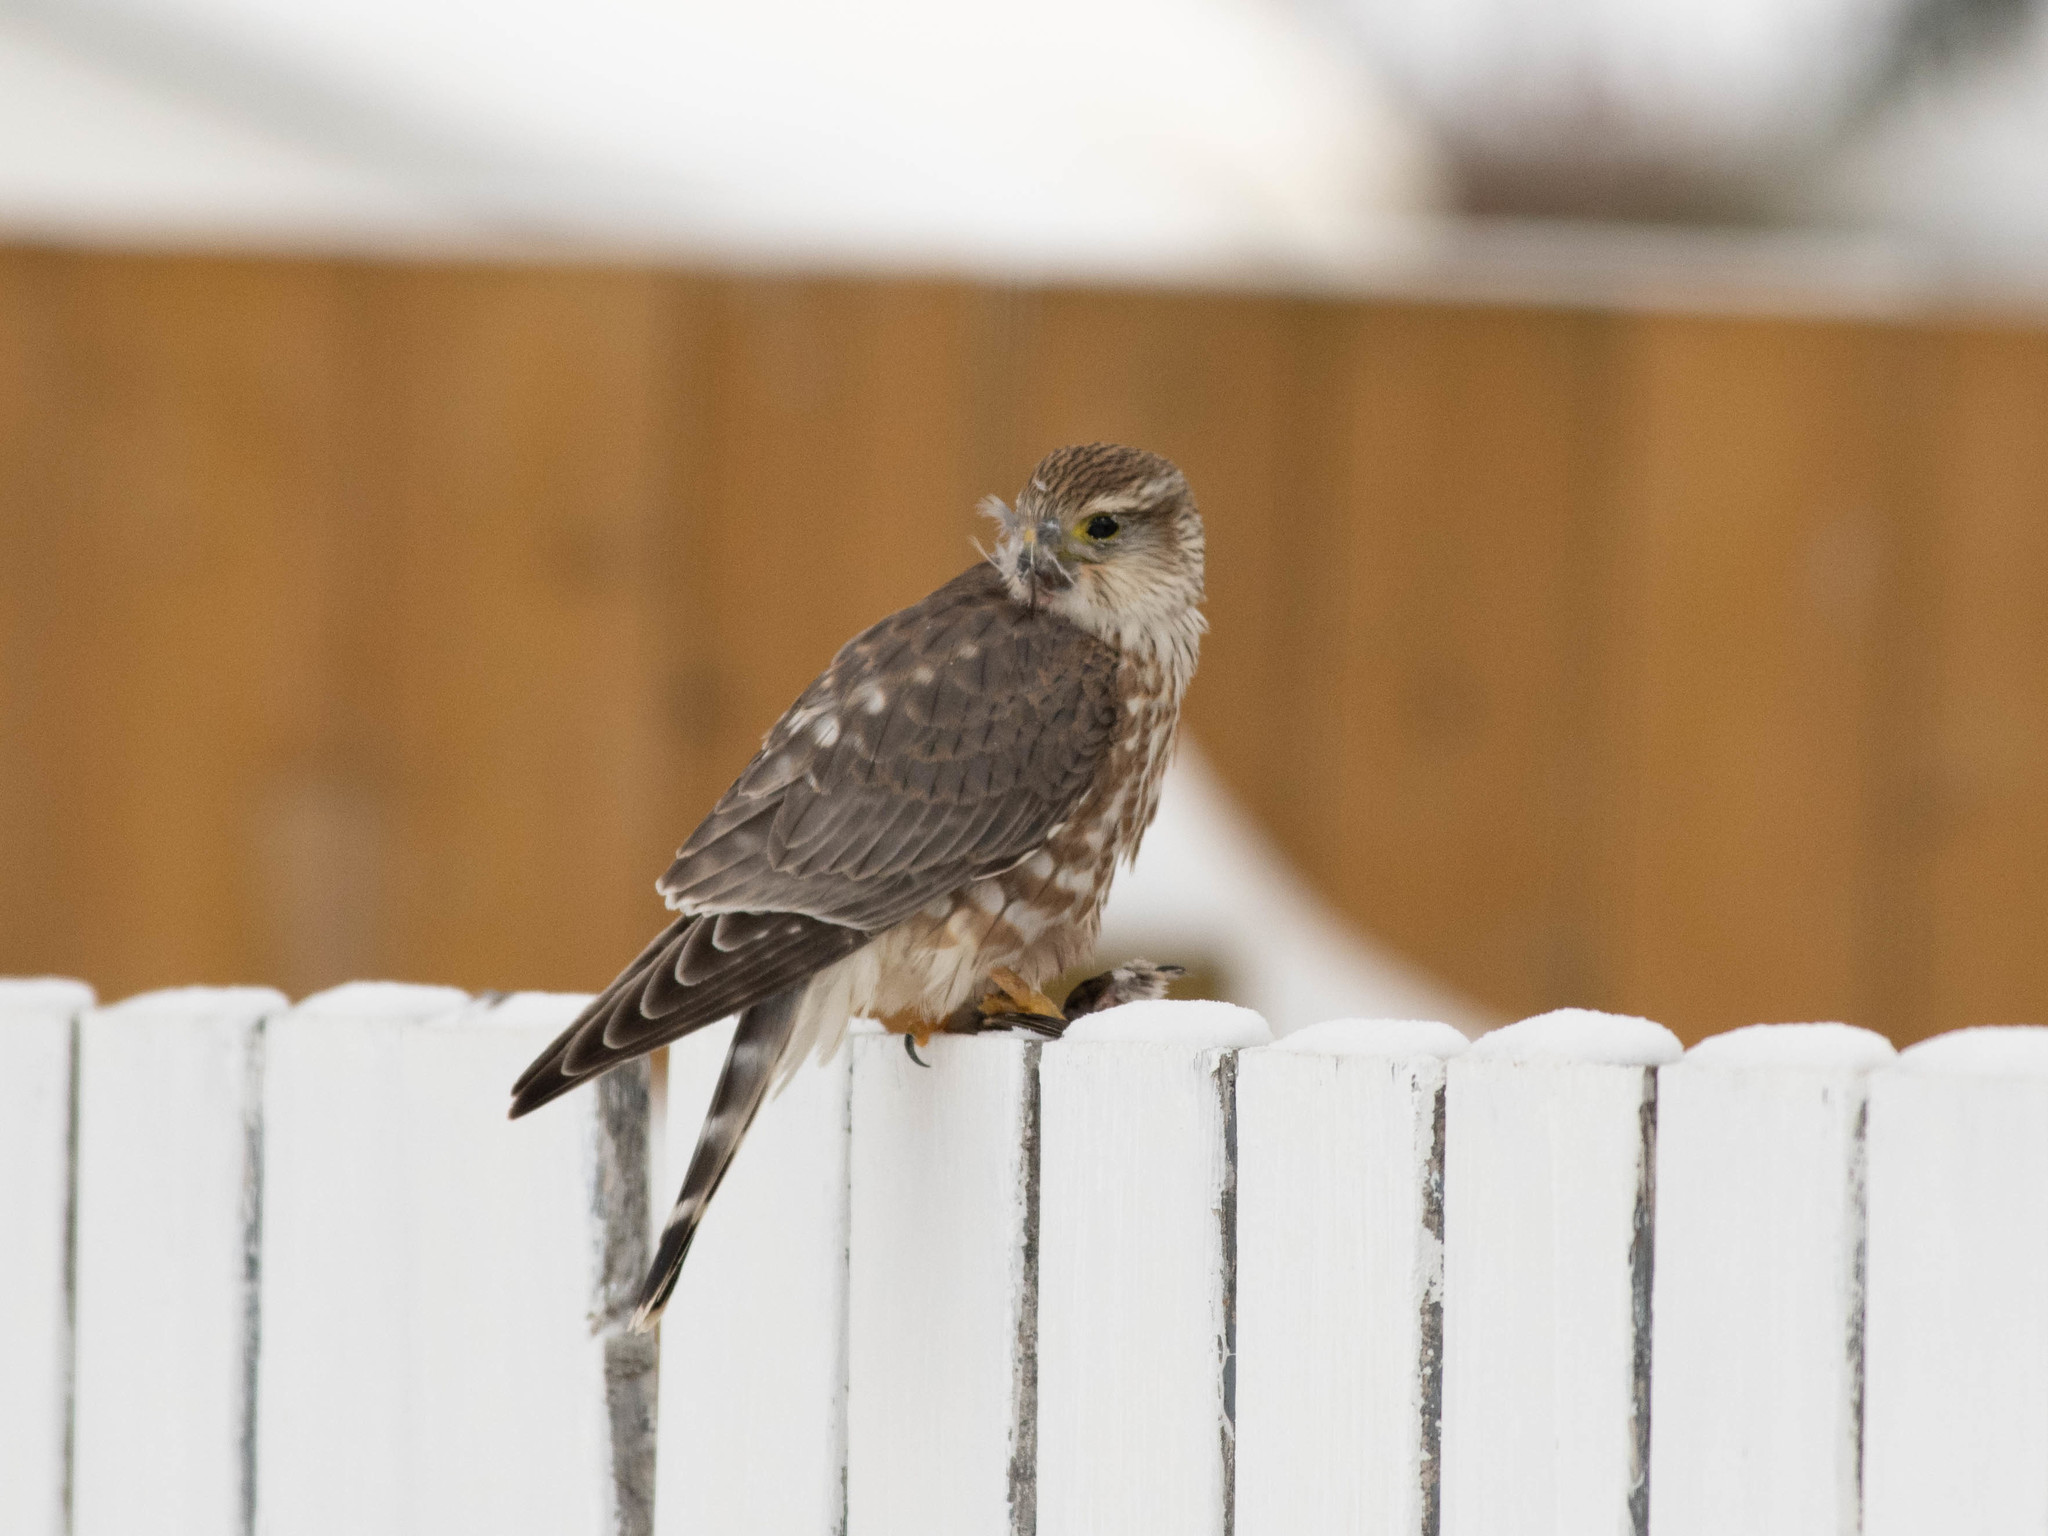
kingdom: Animalia
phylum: Chordata
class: Aves
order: Falconiformes
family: Falconidae
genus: Falco
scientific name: Falco columbarius
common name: Merlin
